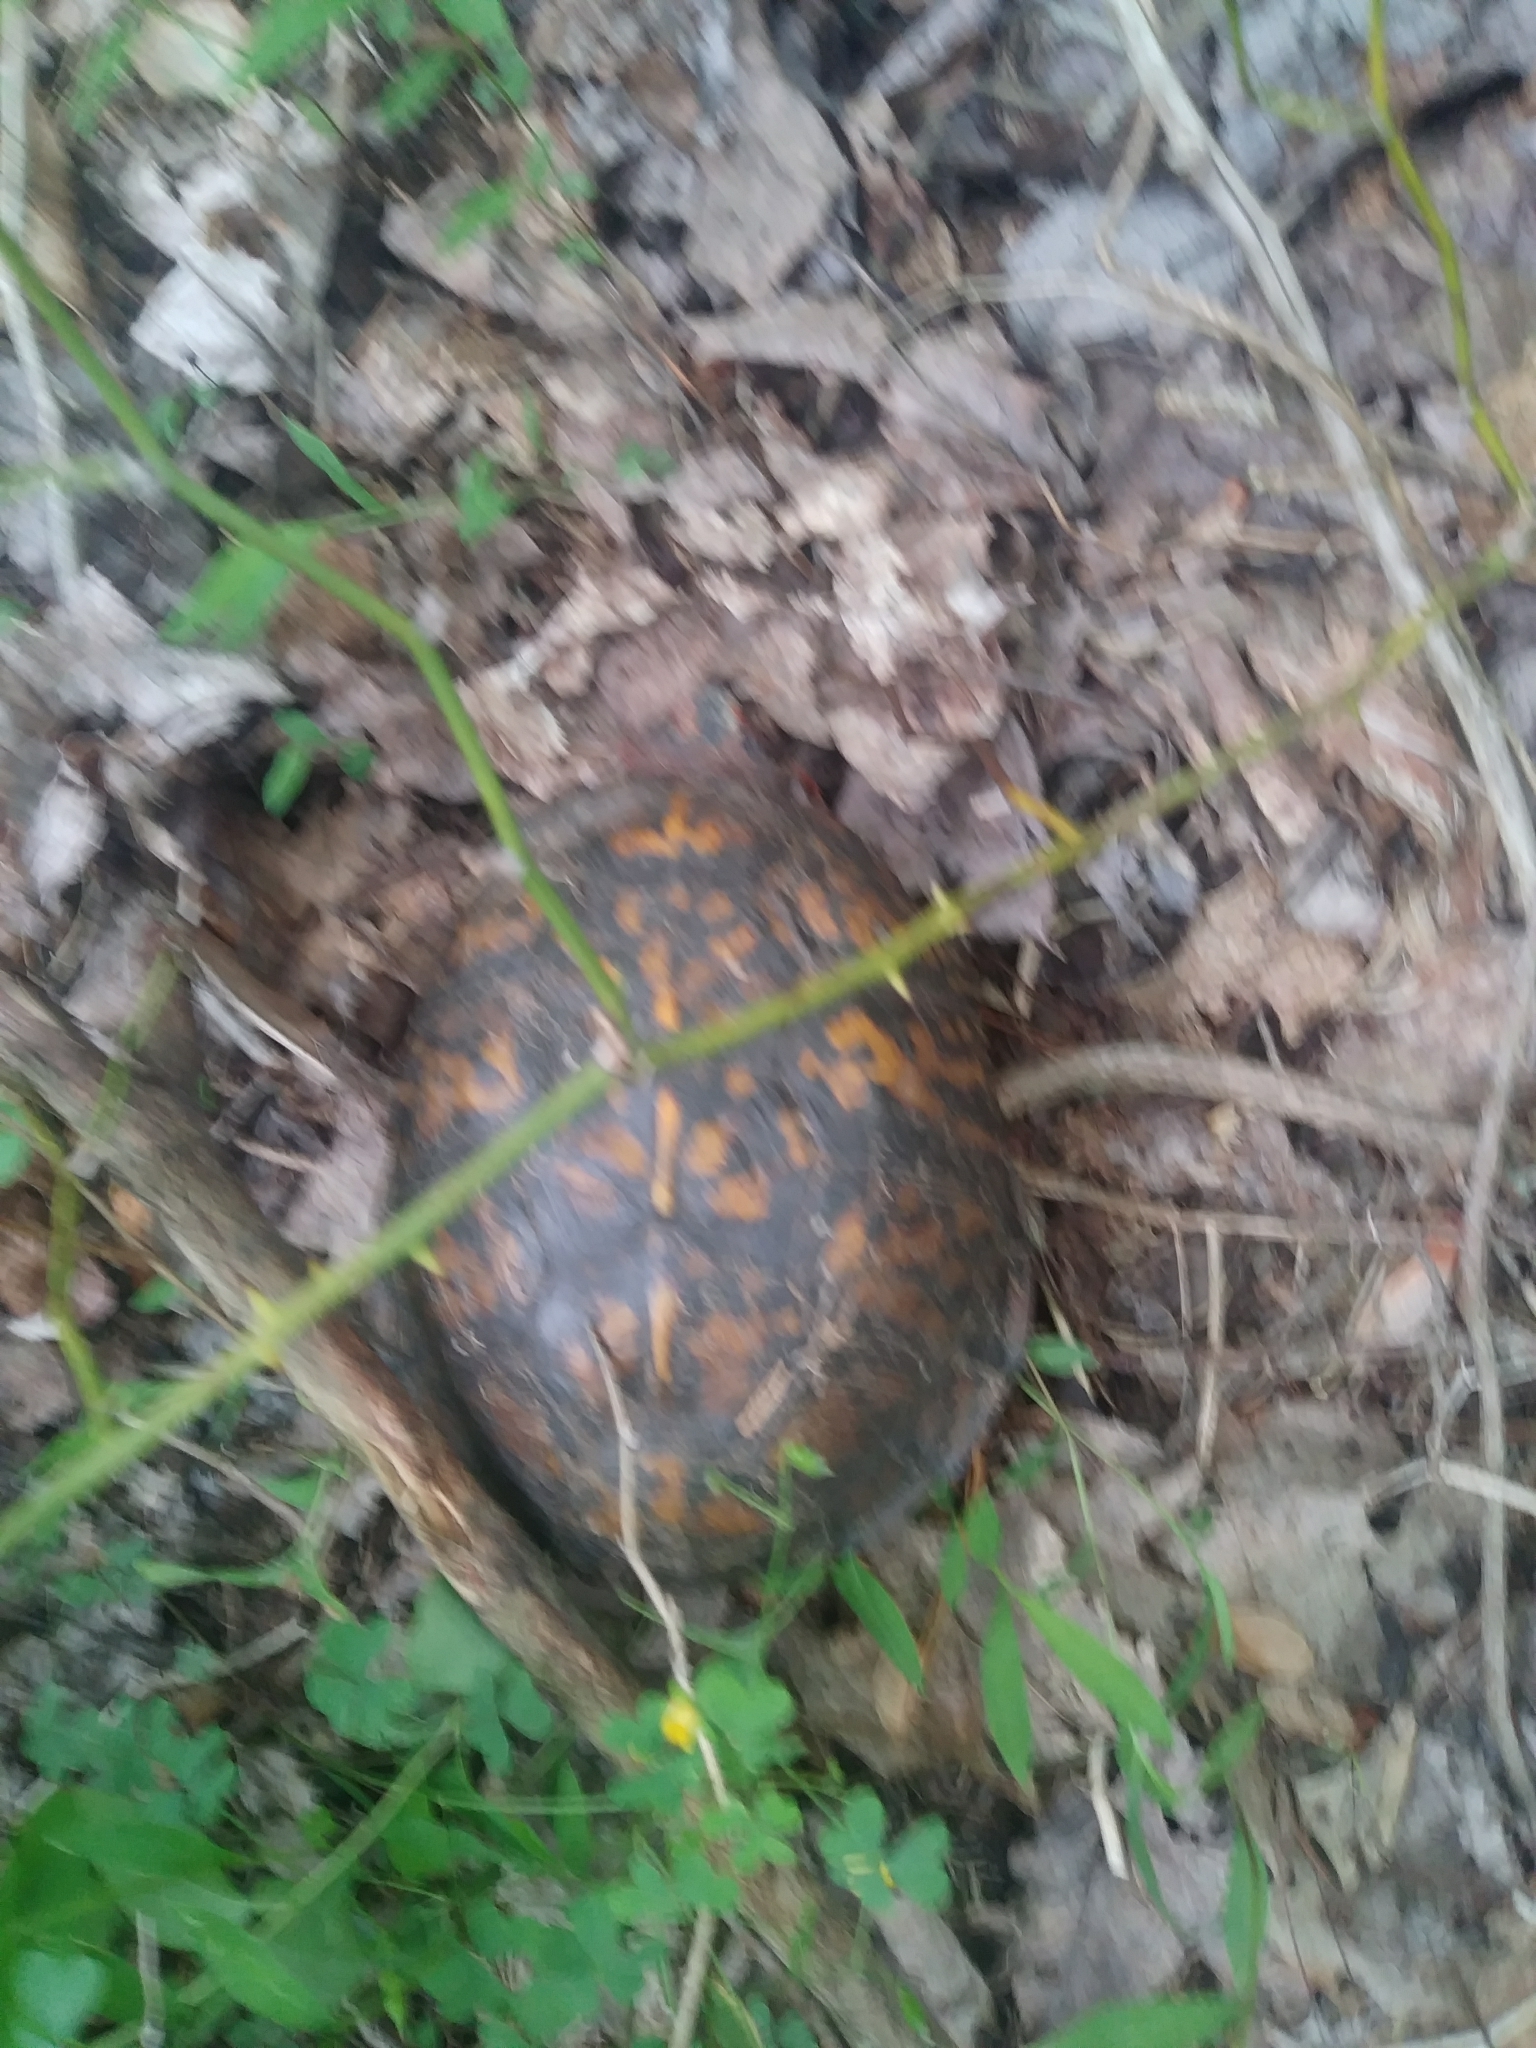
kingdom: Animalia
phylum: Chordata
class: Testudines
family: Emydidae
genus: Terrapene
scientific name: Terrapene carolina
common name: Common box turtle
